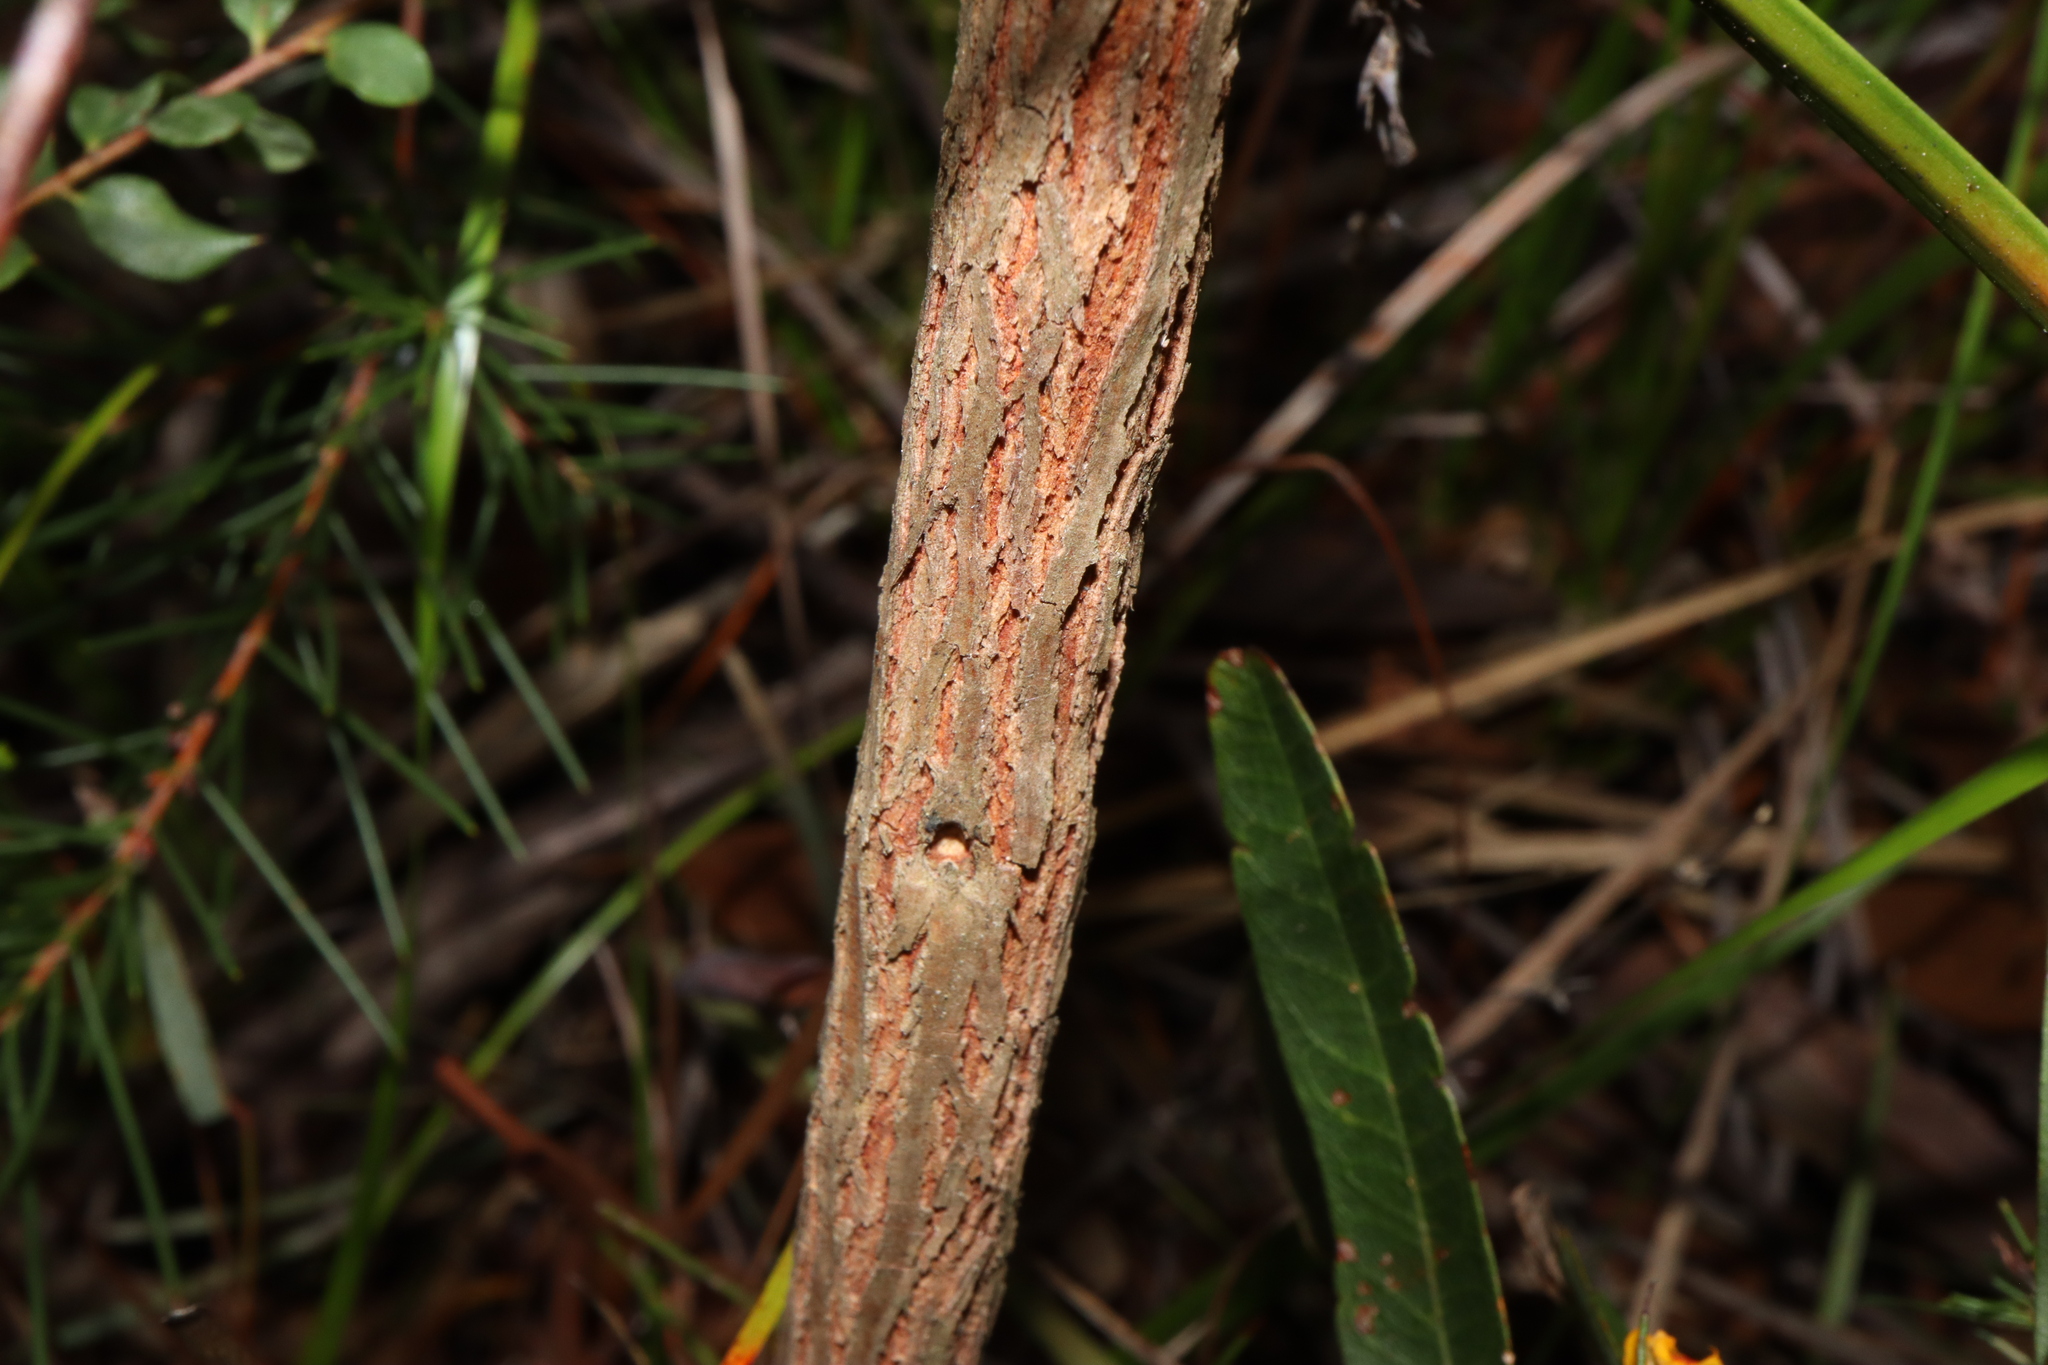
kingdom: Plantae
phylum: Tracheophyta
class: Magnoliopsida
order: Fabales
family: Fabaceae
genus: Jacksonia
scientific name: Jacksonia scoparia
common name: Dogwood
